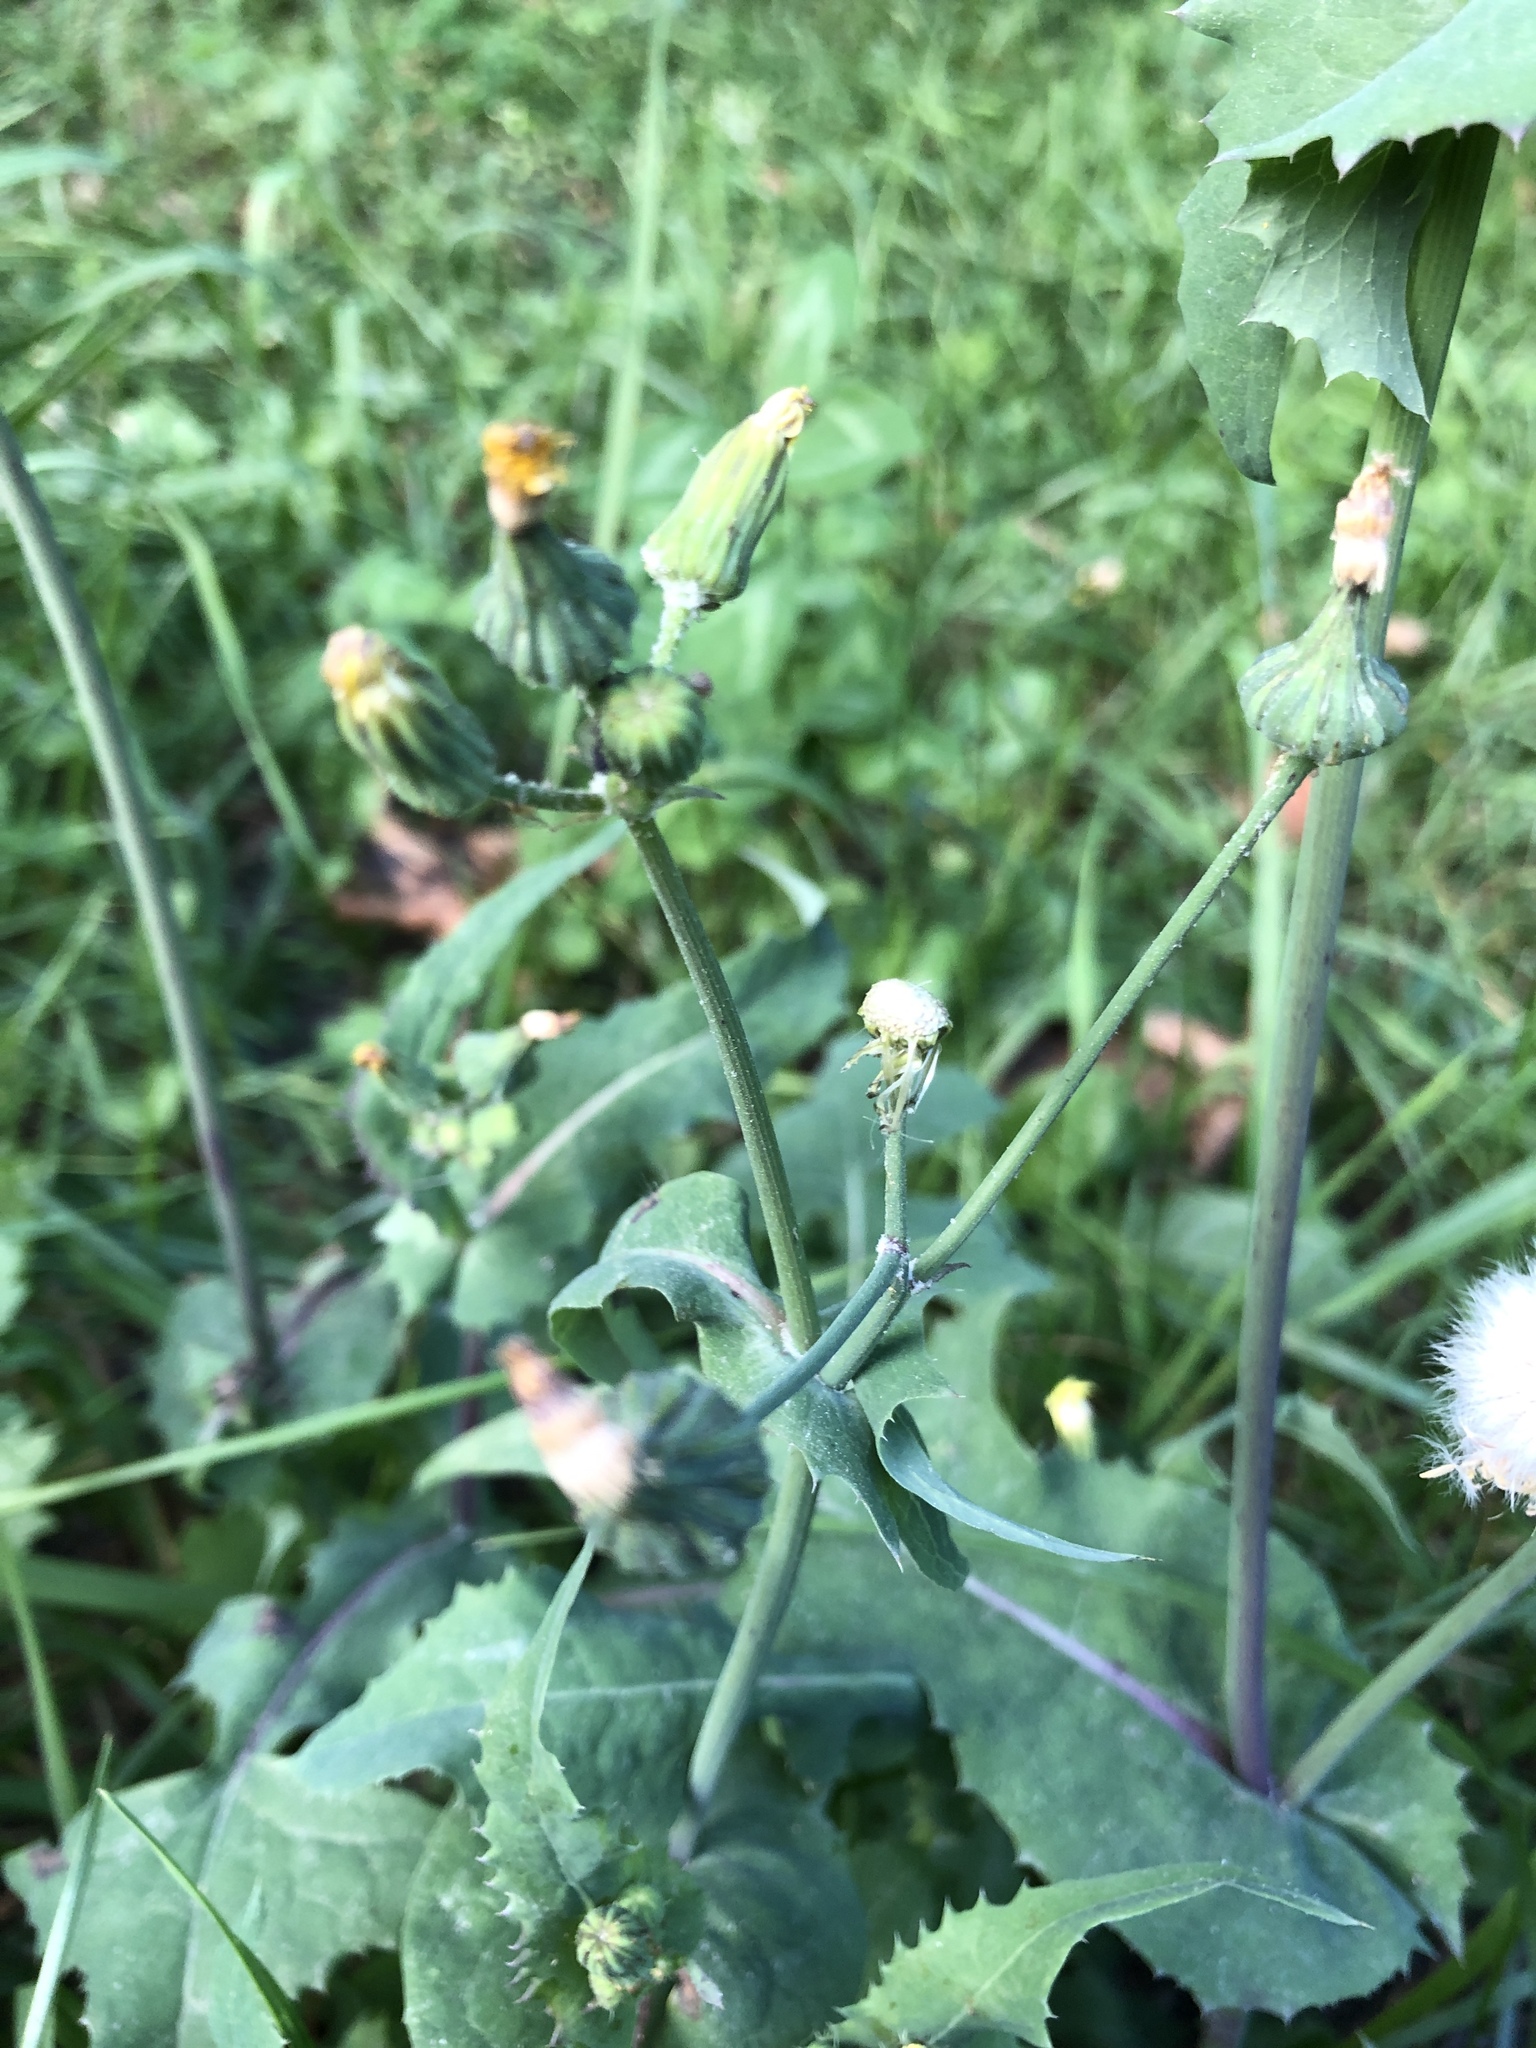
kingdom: Plantae
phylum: Tracheophyta
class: Magnoliopsida
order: Asterales
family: Asteraceae
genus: Sonchus
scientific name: Sonchus oleraceus
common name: Common sowthistle
